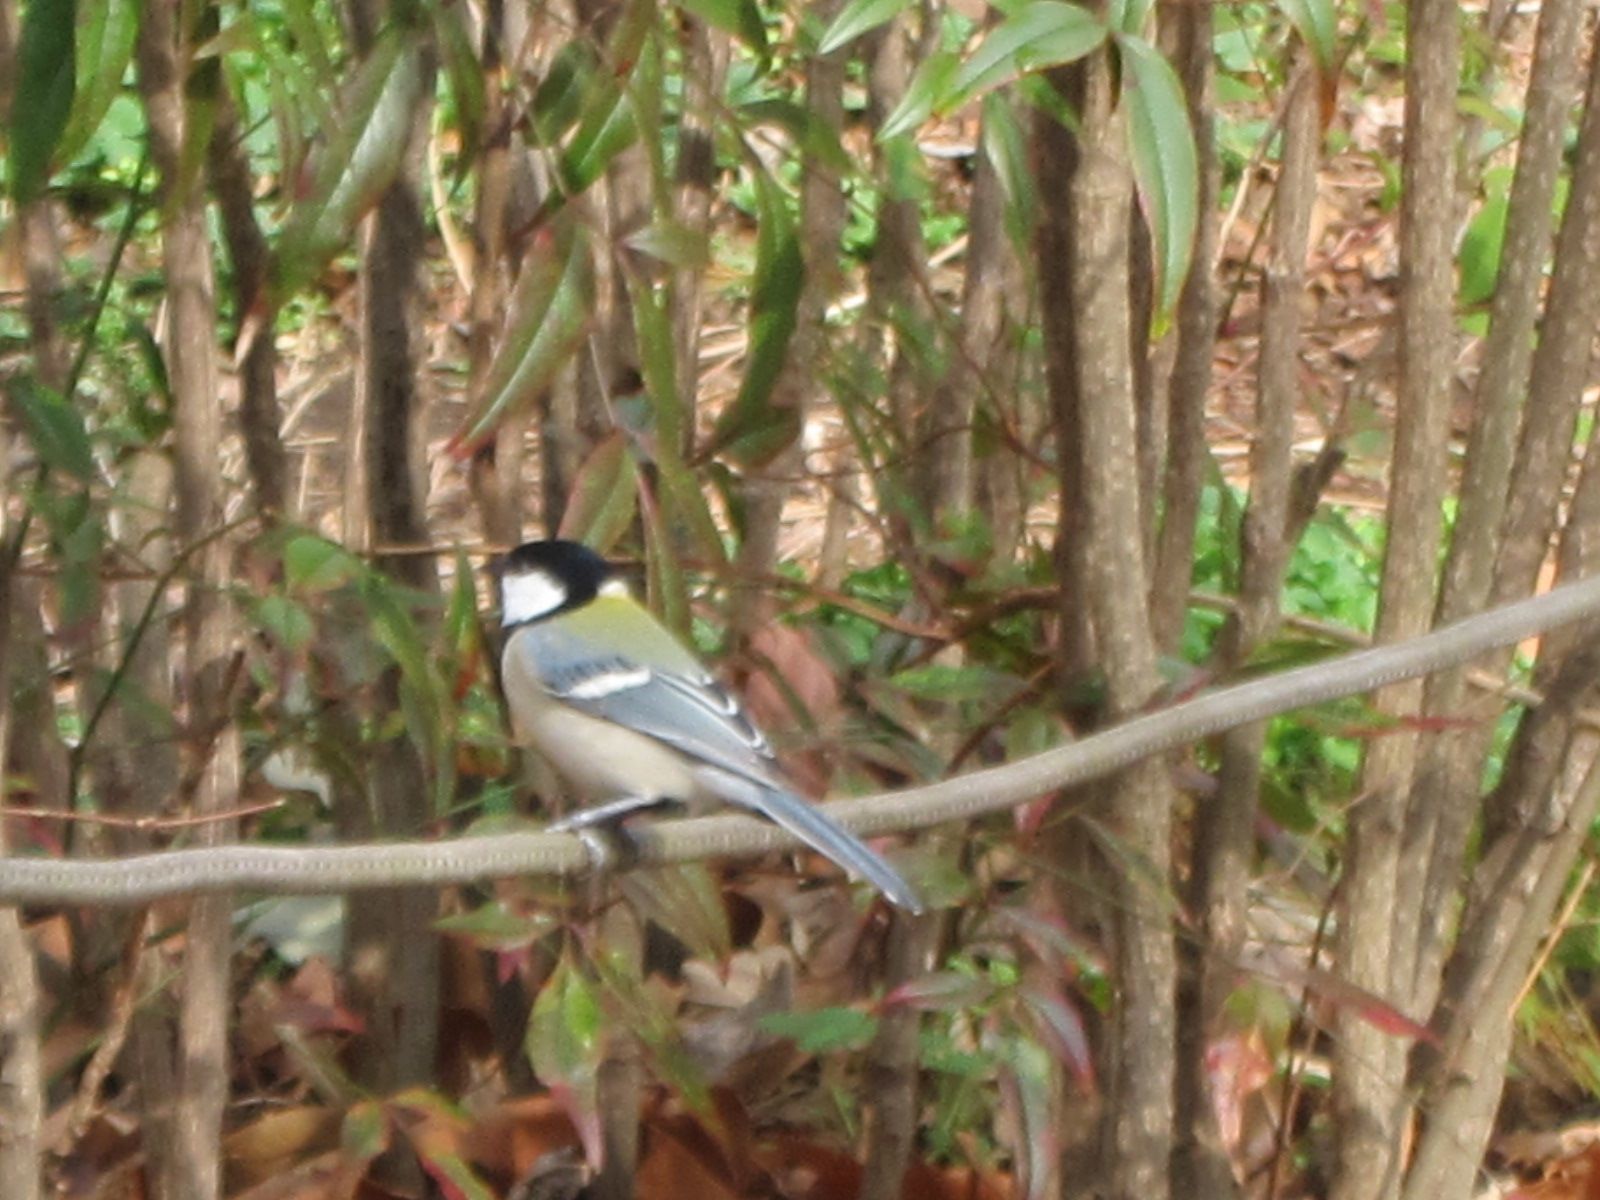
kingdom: Animalia
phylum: Chordata
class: Aves
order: Passeriformes
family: Paridae
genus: Parus
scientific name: Parus minor
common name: Japanese tit
